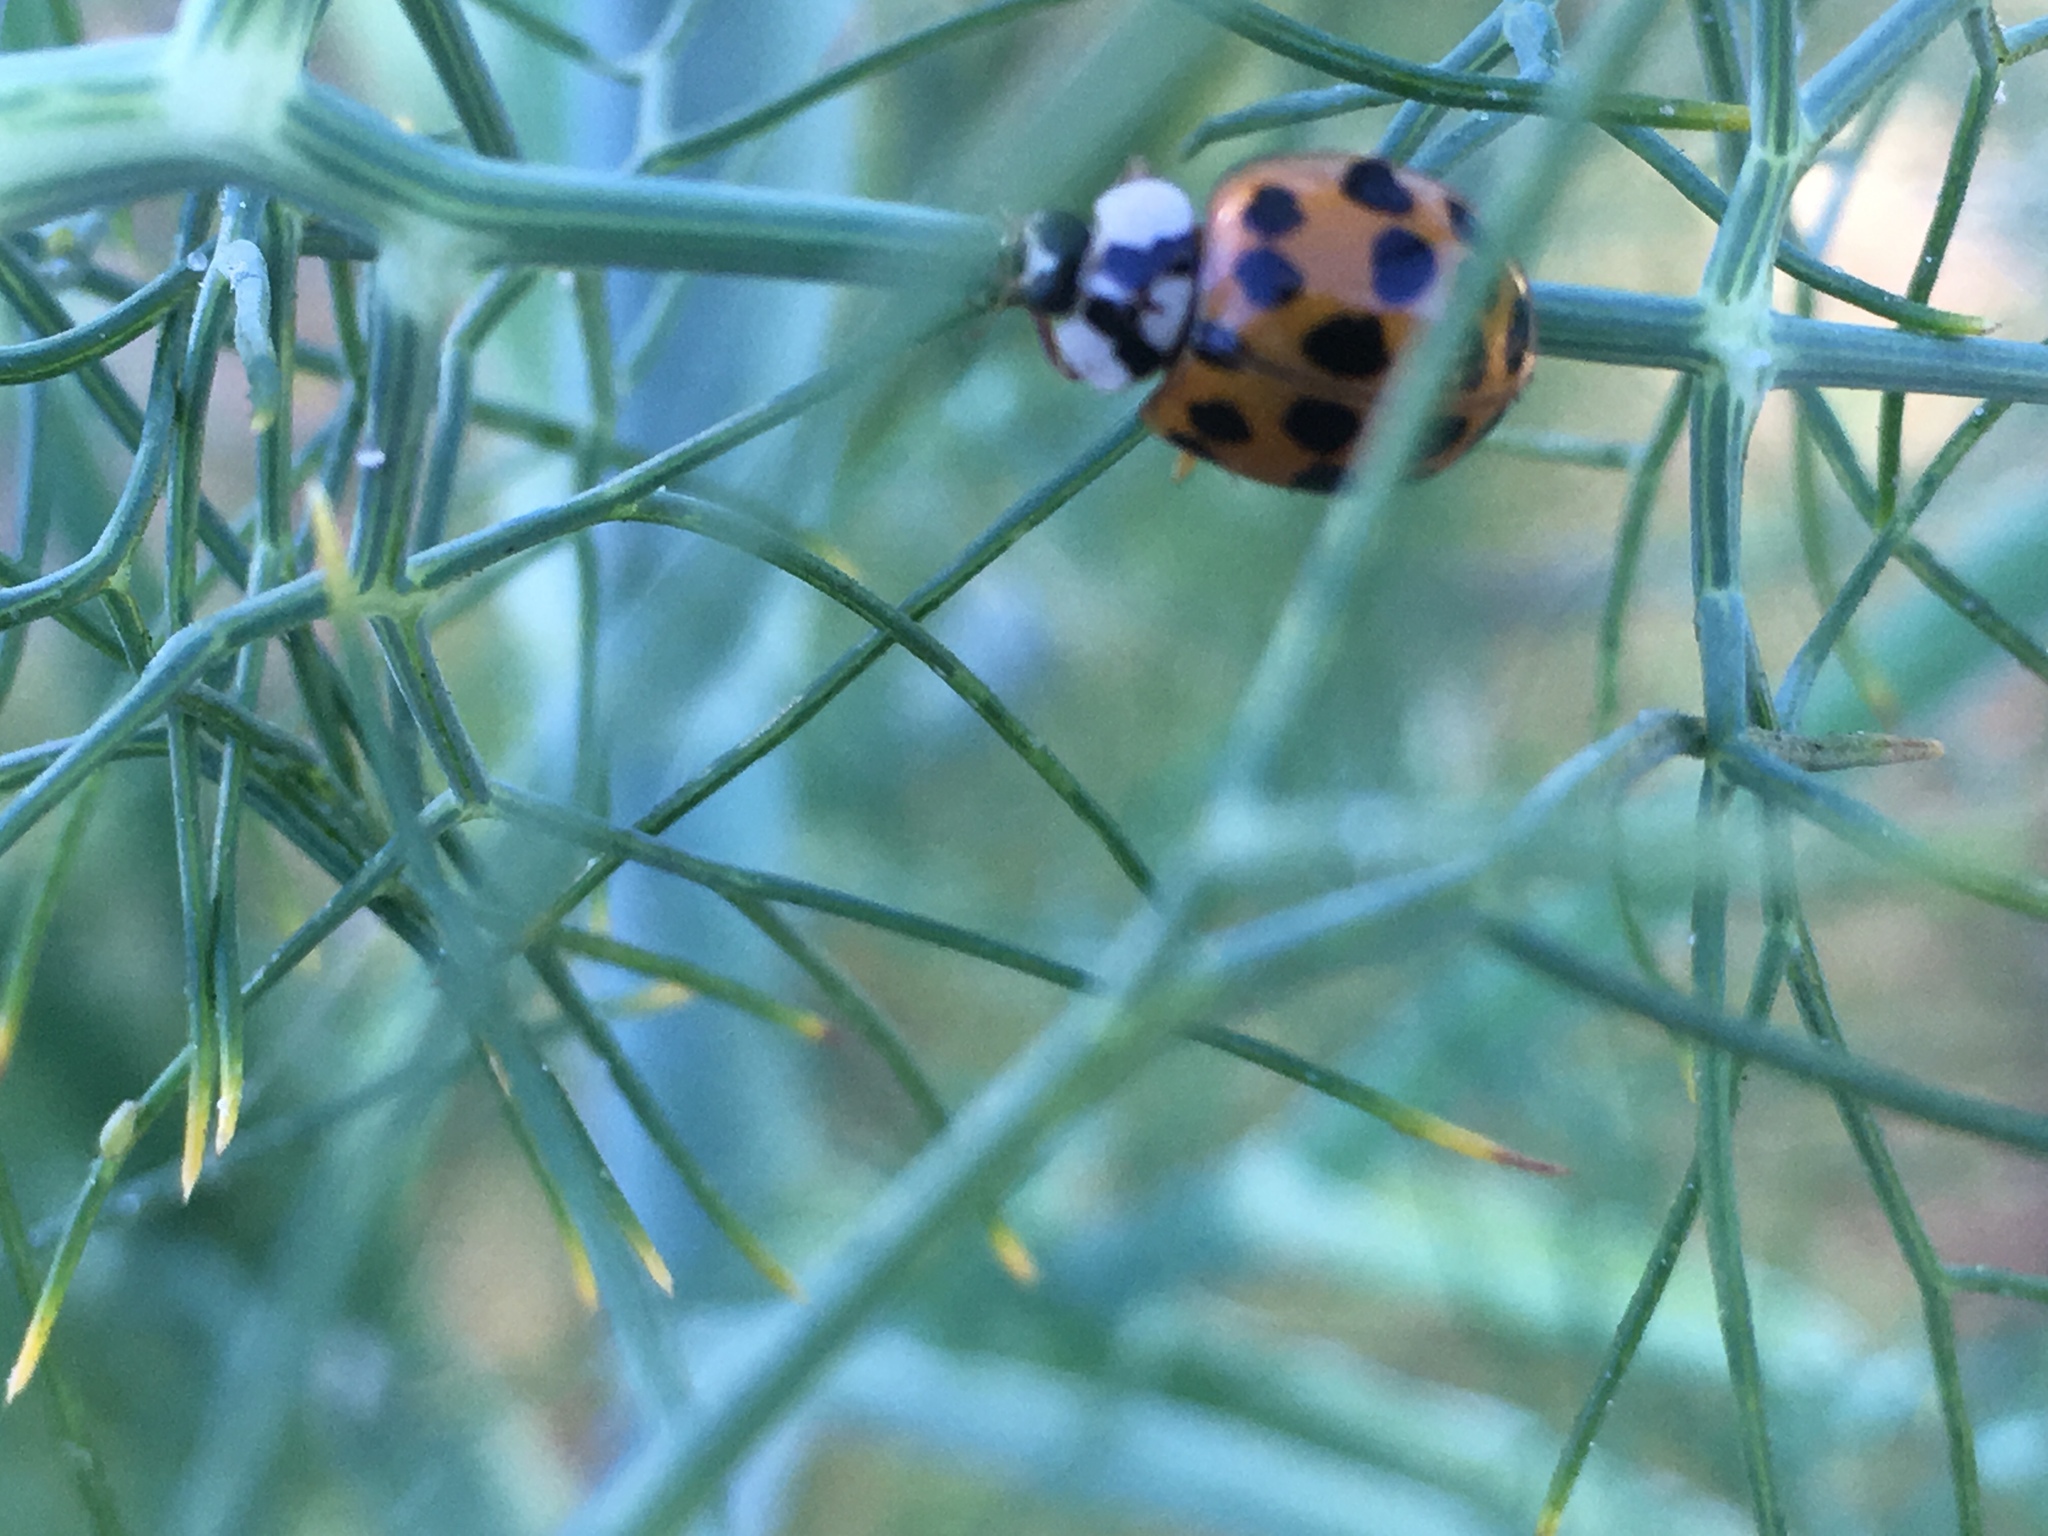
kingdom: Animalia
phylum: Arthropoda
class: Insecta
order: Coleoptera
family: Coccinellidae
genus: Harmonia
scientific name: Harmonia axyridis
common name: Harlequin ladybird
